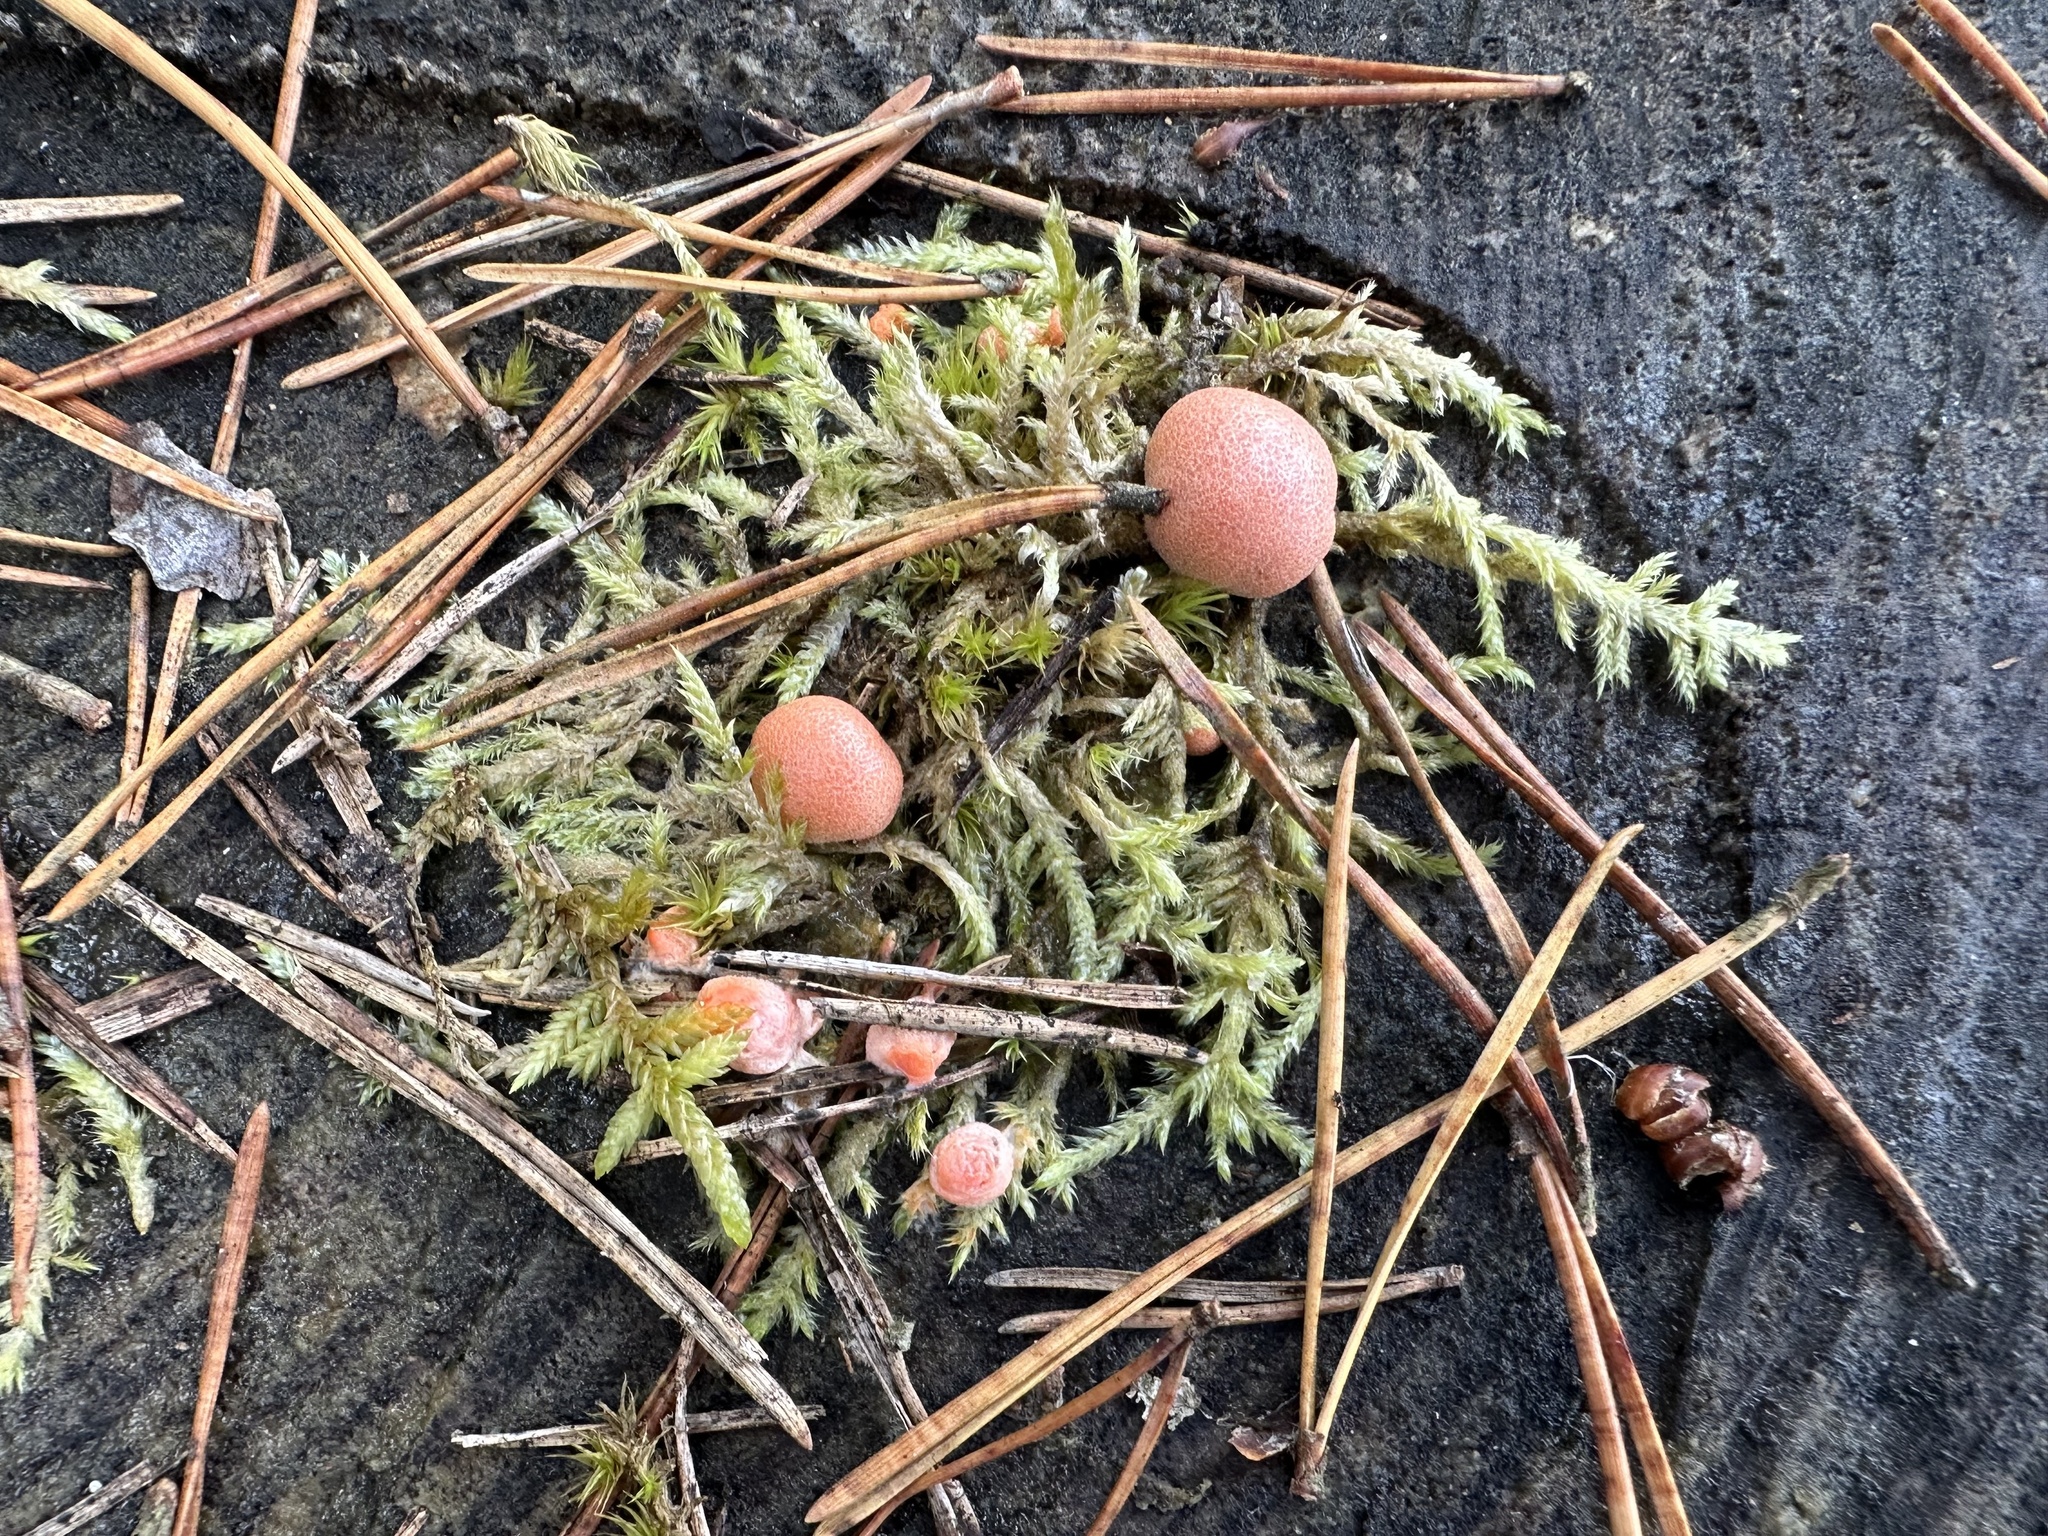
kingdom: Protozoa
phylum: Mycetozoa
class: Myxomycetes
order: Cribrariales
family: Tubiferaceae
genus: Lycogala
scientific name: Lycogala epidendrum
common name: Wolf's milk
